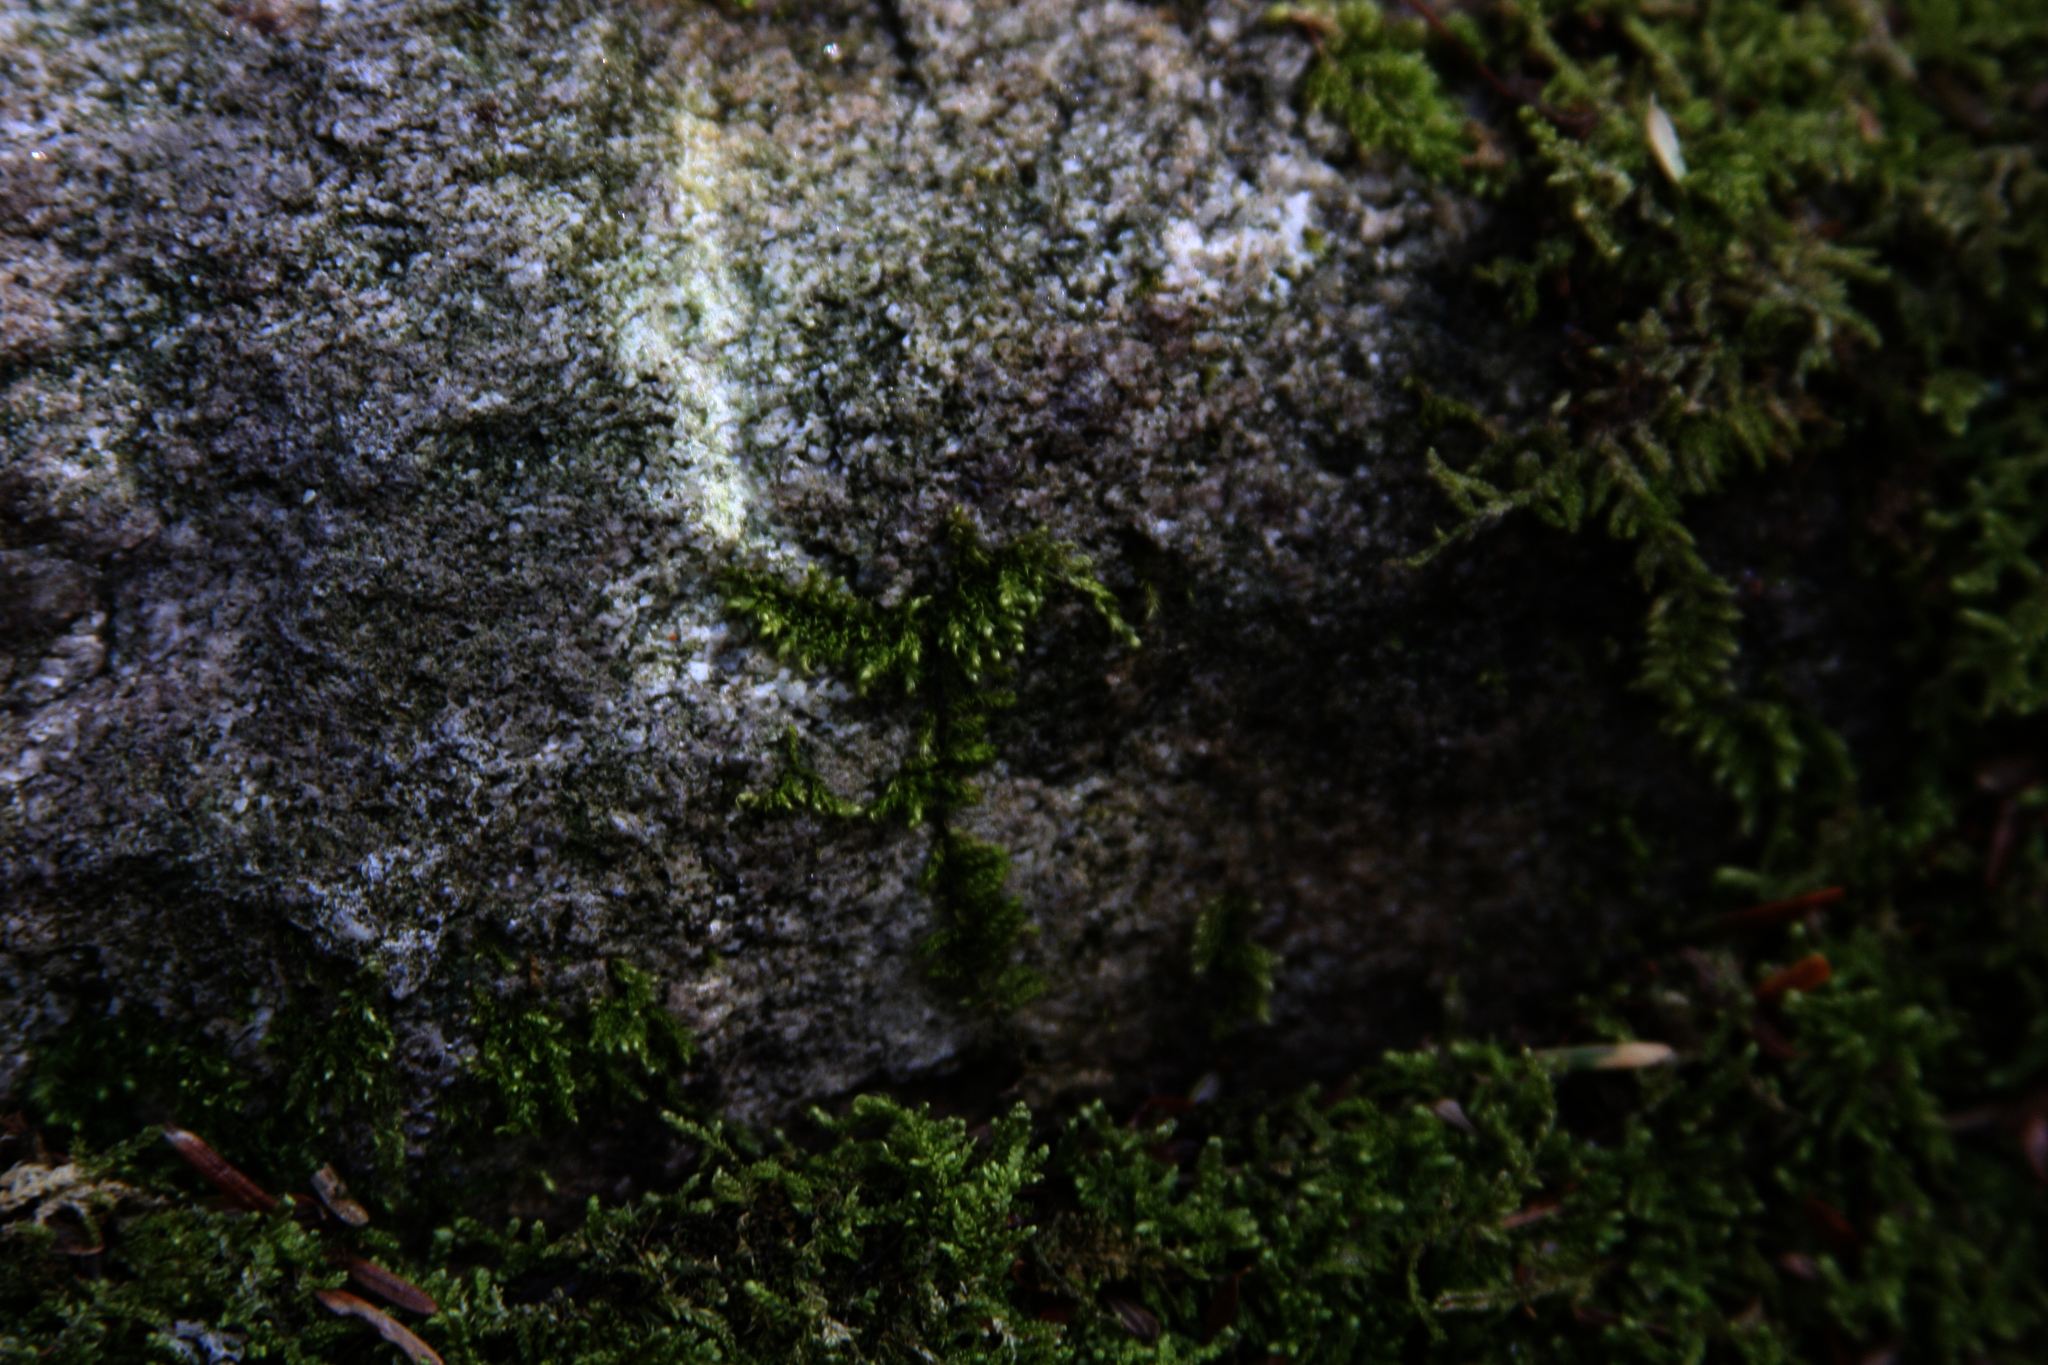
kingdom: Plantae
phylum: Bryophyta
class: Bryopsida
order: Hypnales
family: Callicladiaceae
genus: Callicladium
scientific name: Callicladium imponens
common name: Brocade moss
